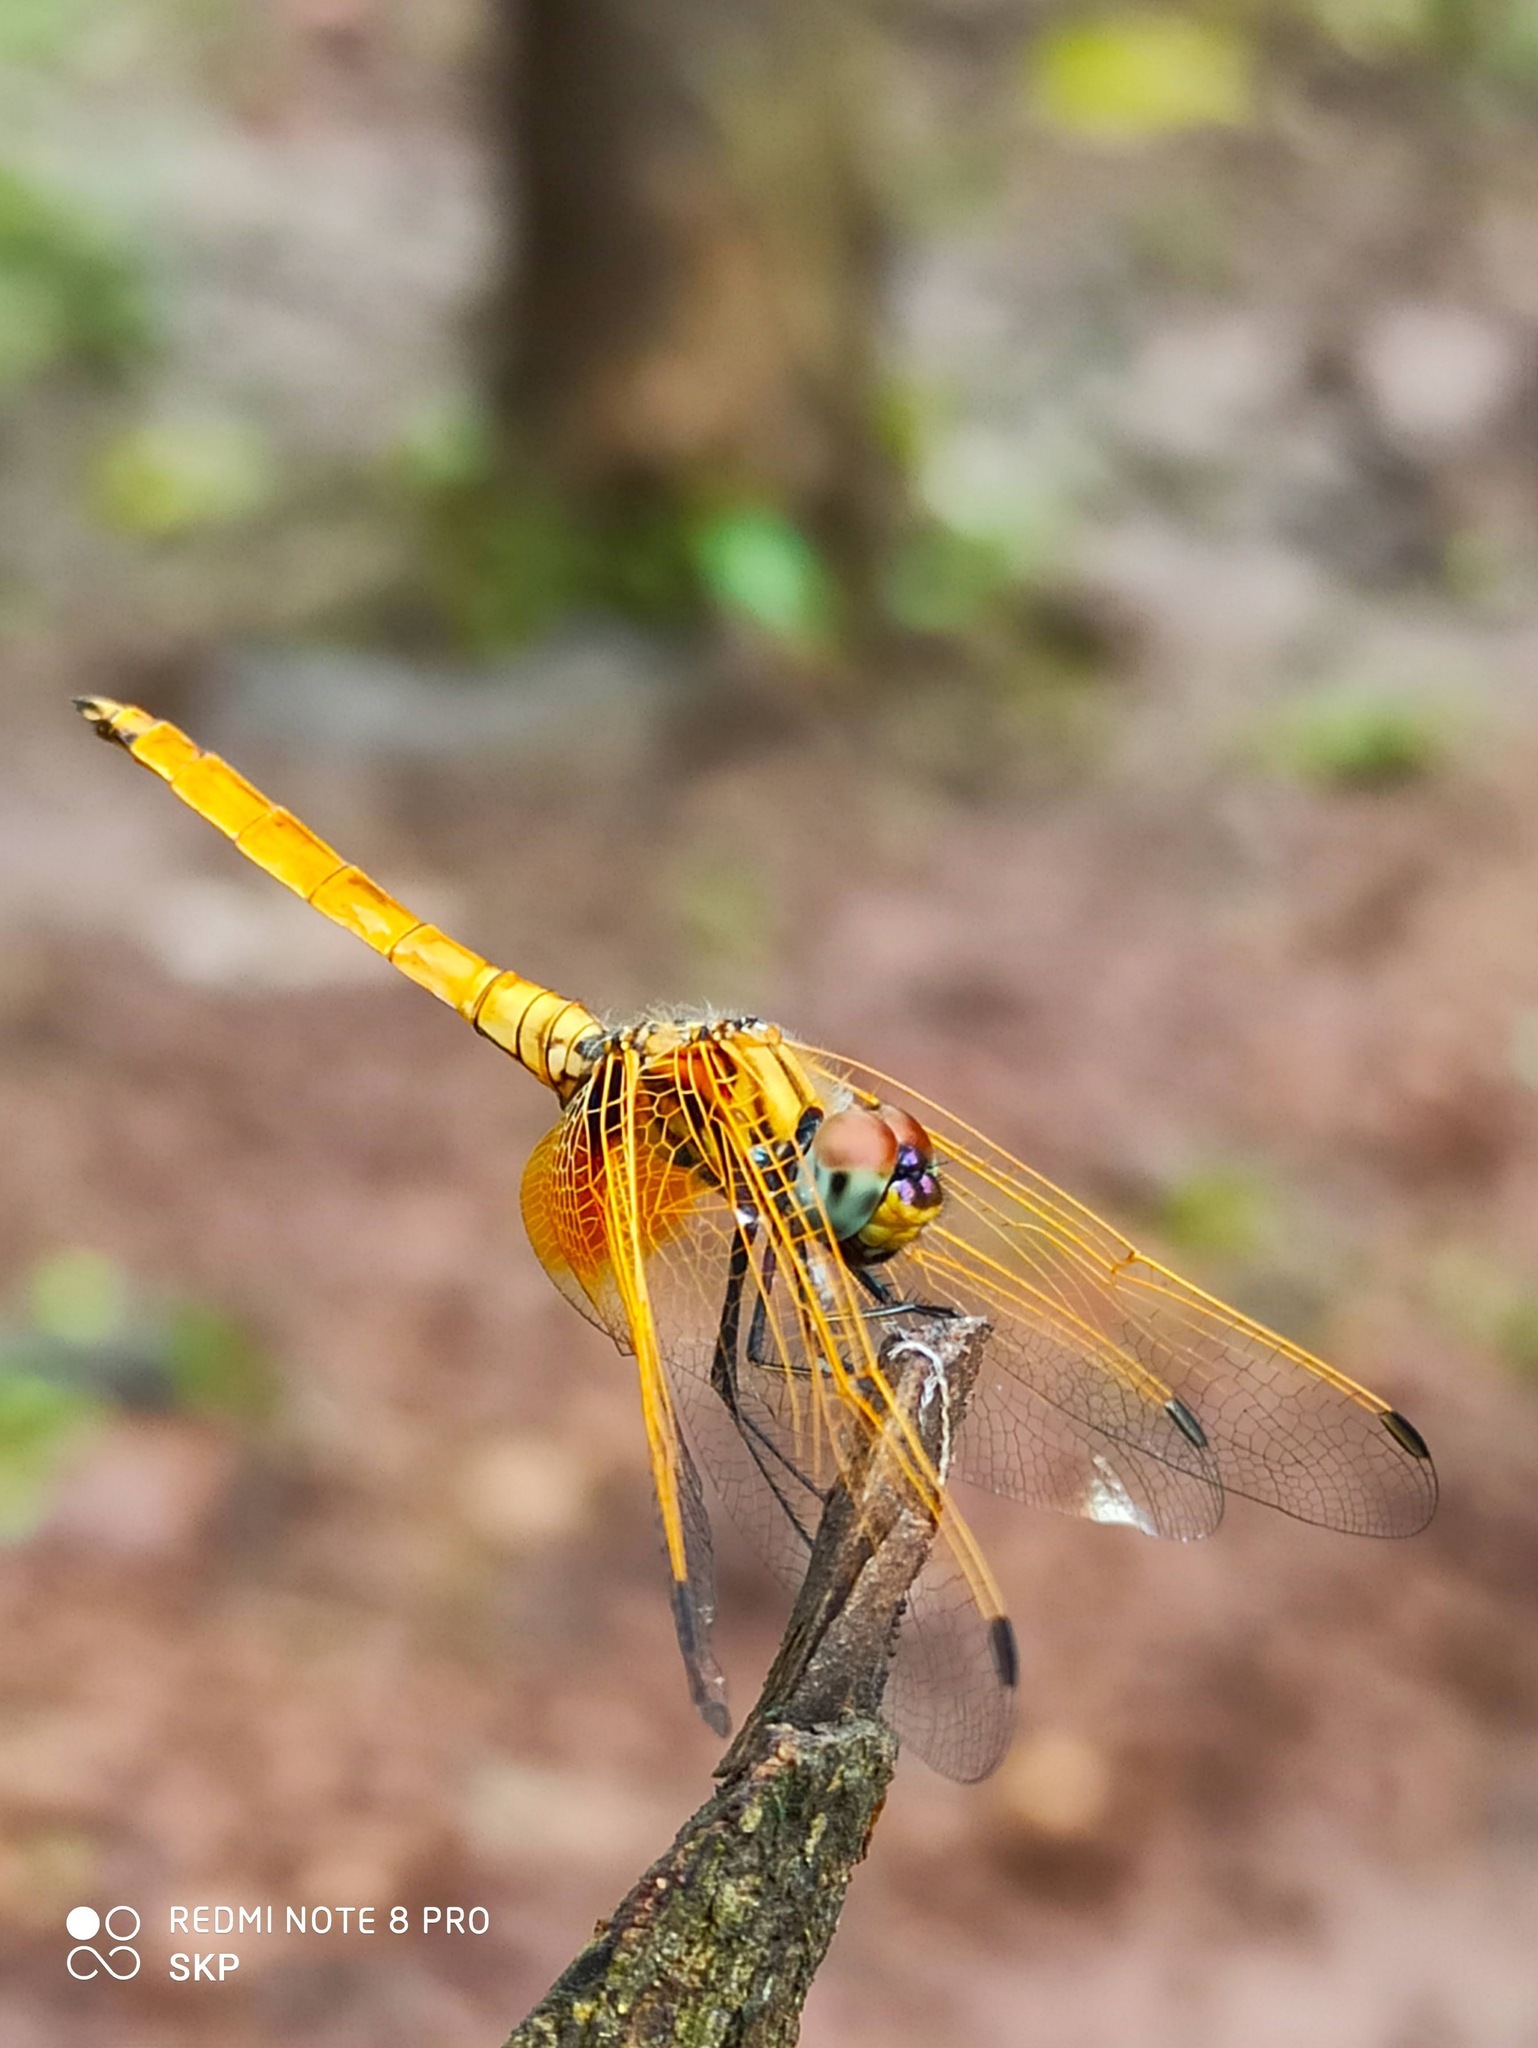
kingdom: Animalia
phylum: Arthropoda
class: Insecta
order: Odonata
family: Libellulidae
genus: Trithemis
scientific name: Trithemis aurora
